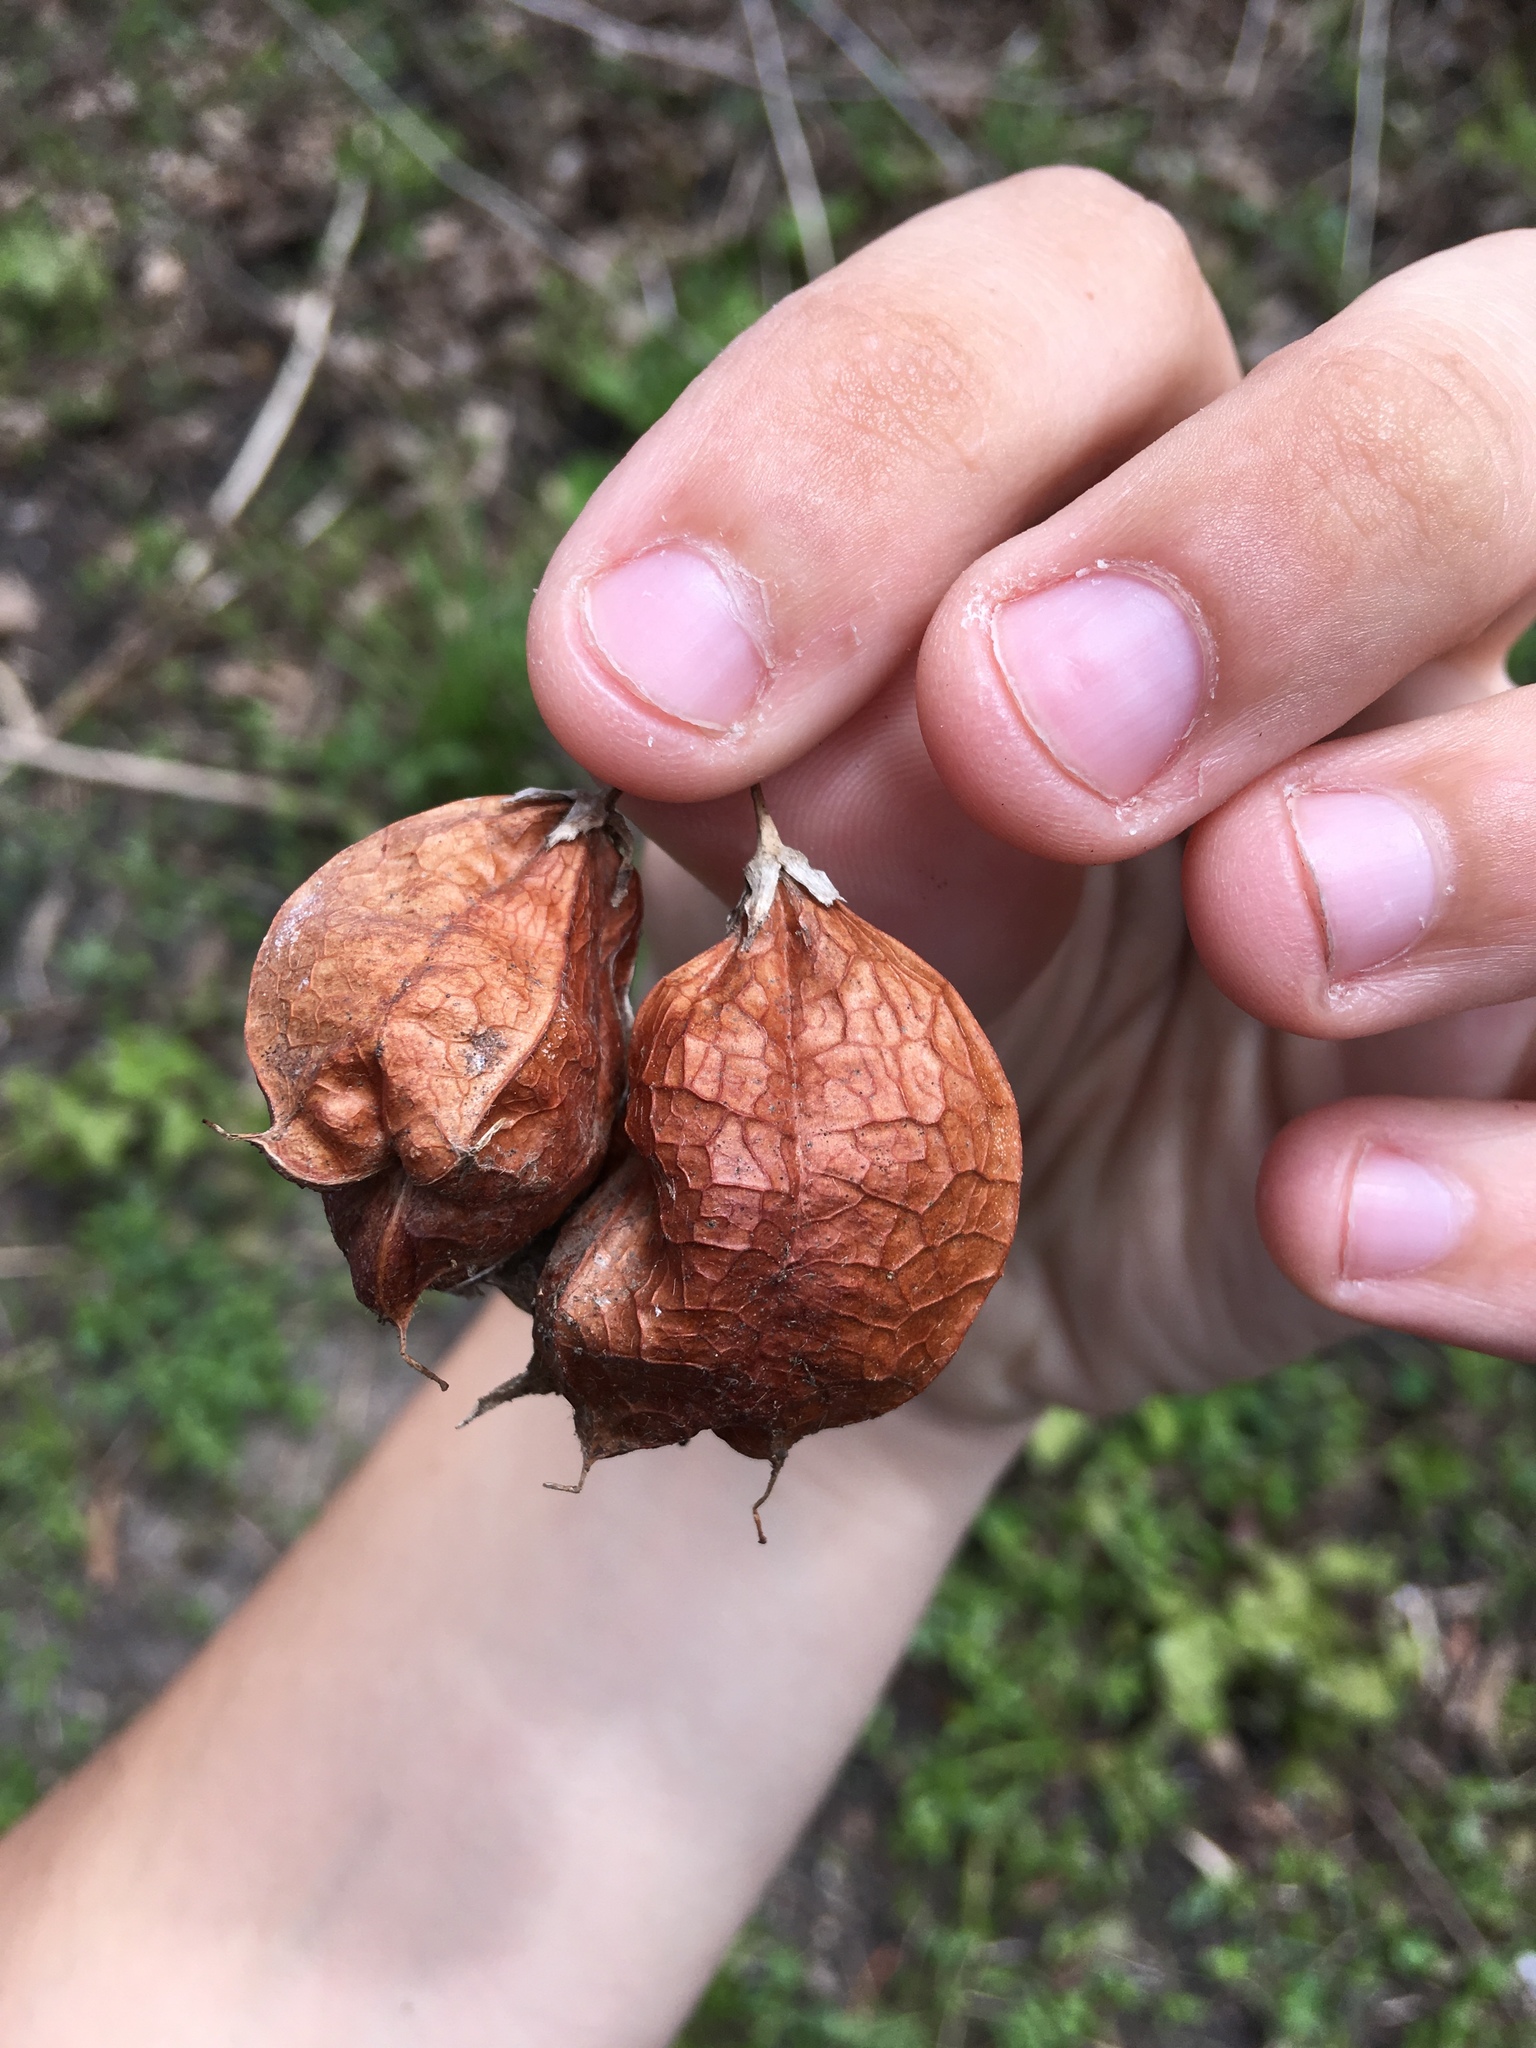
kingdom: Plantae
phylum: Tracheophyta
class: Magnoliopsida
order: Crossosomatales
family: Staphyleaceae
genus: Staphylea
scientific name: Staphylea trifolia
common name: American bladdernut
